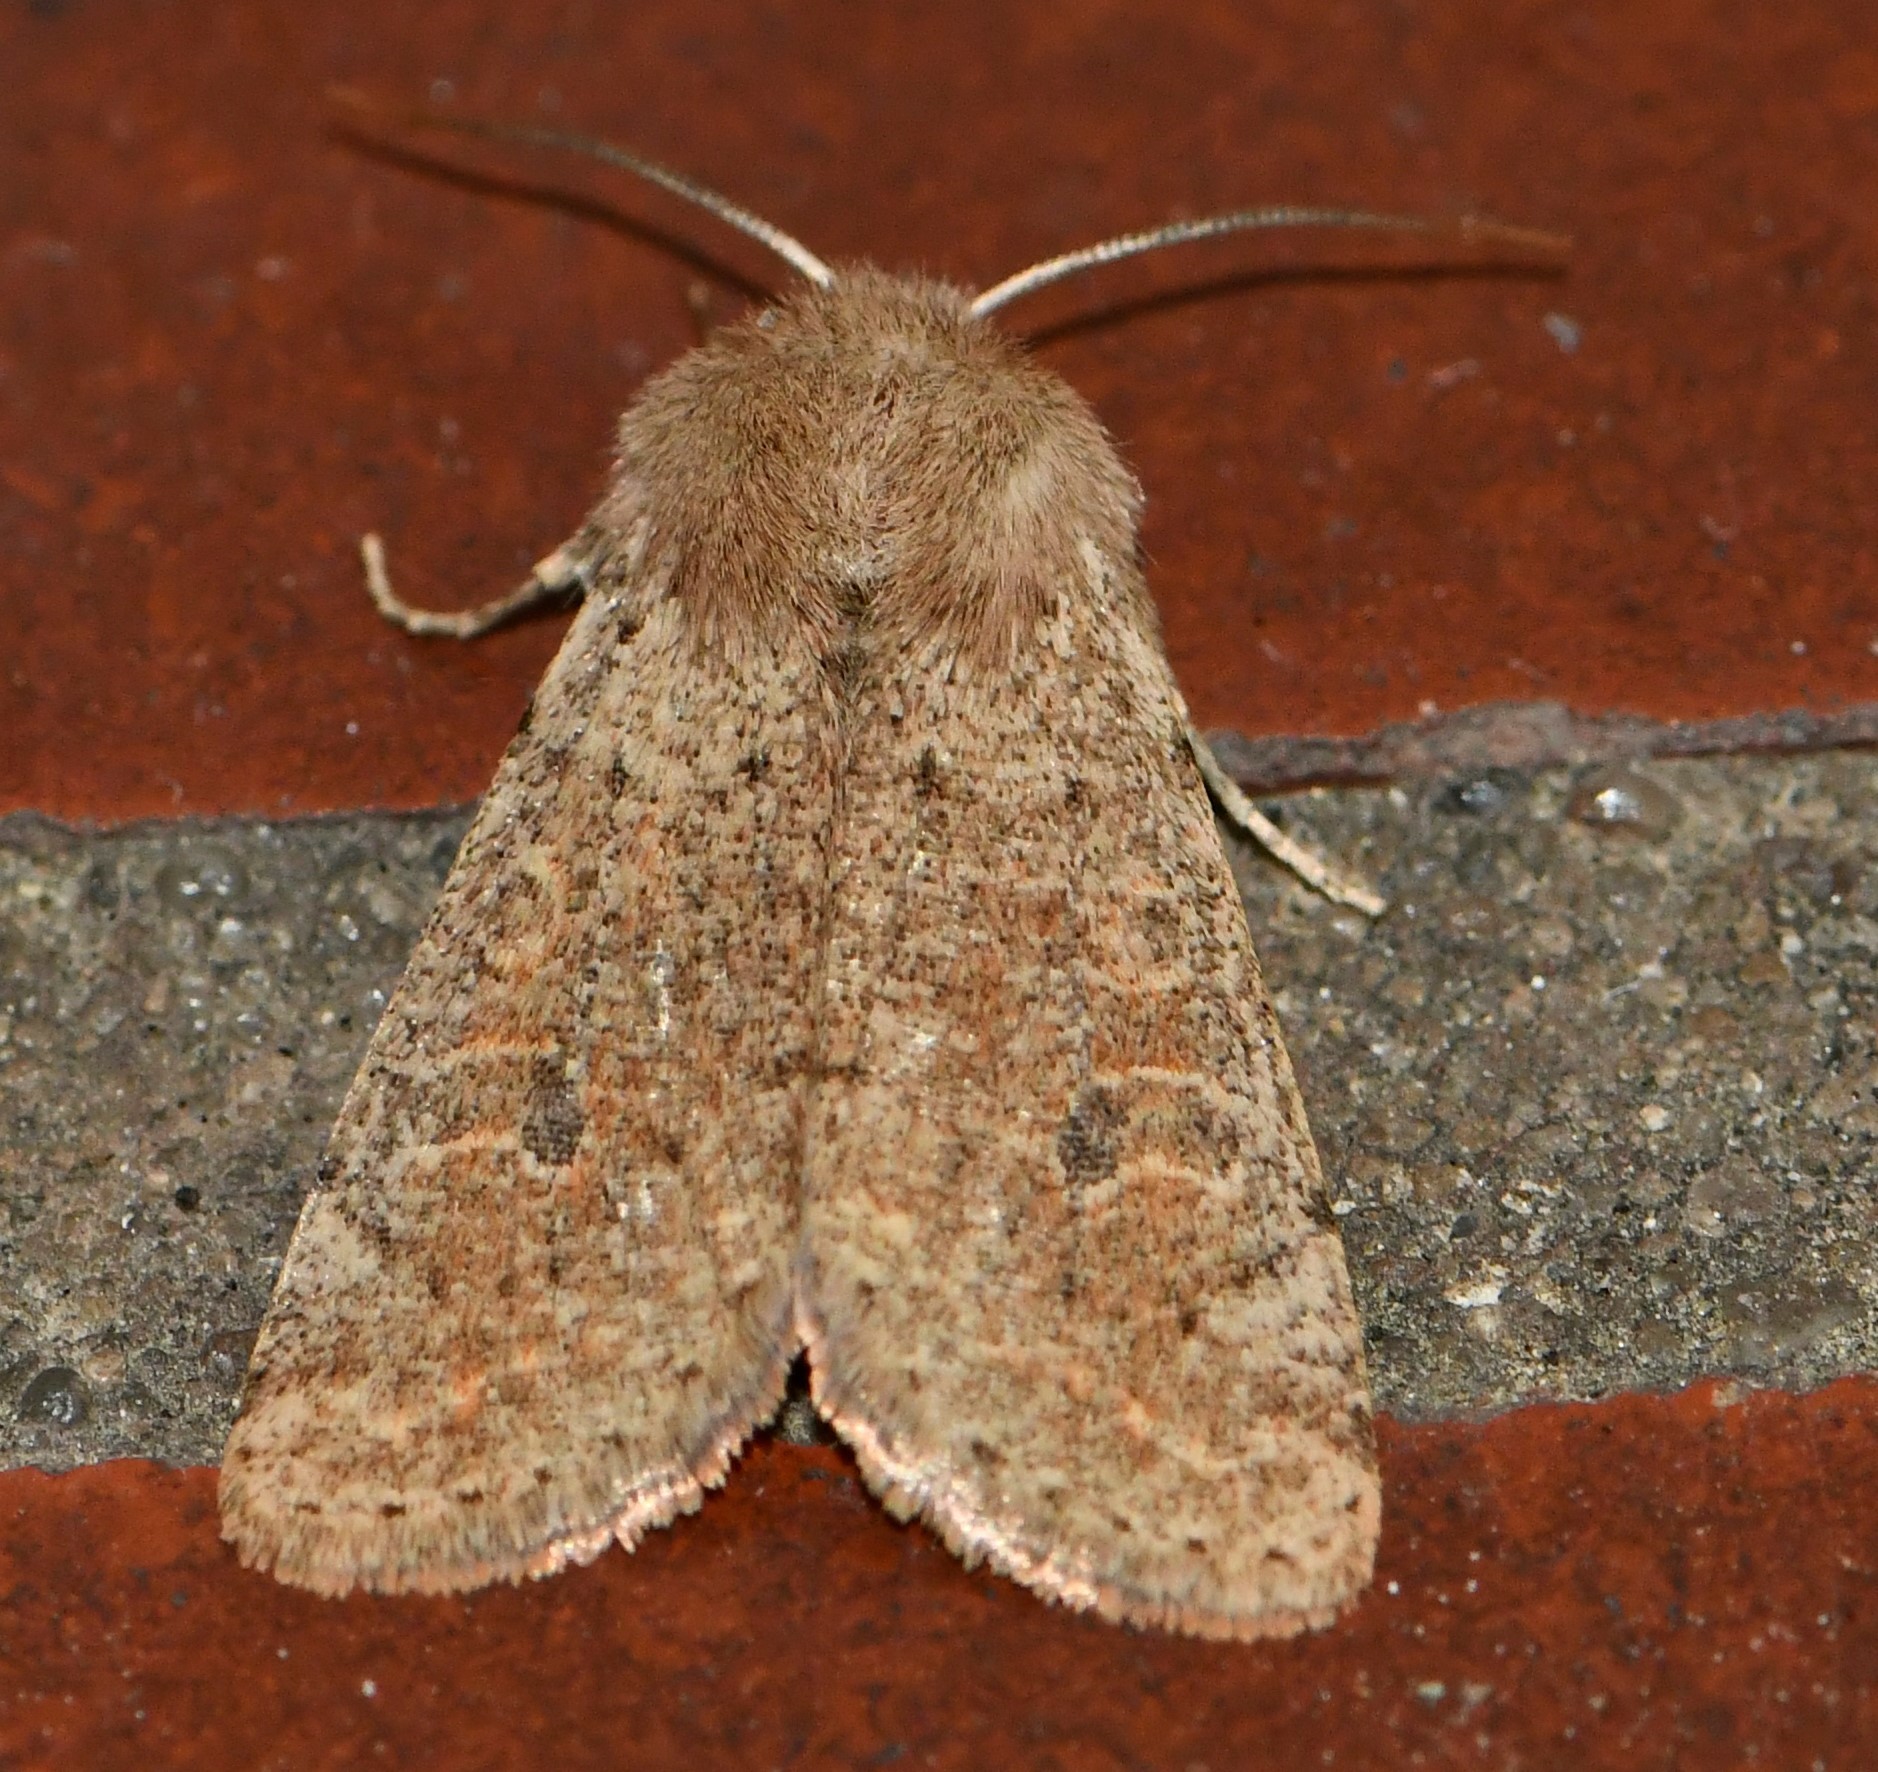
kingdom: Animalia
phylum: Arthropoda
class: Insecta
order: Lepidoptera
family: Noctuidae
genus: Orthosia
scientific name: Orthosia cruda
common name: Small quaker
